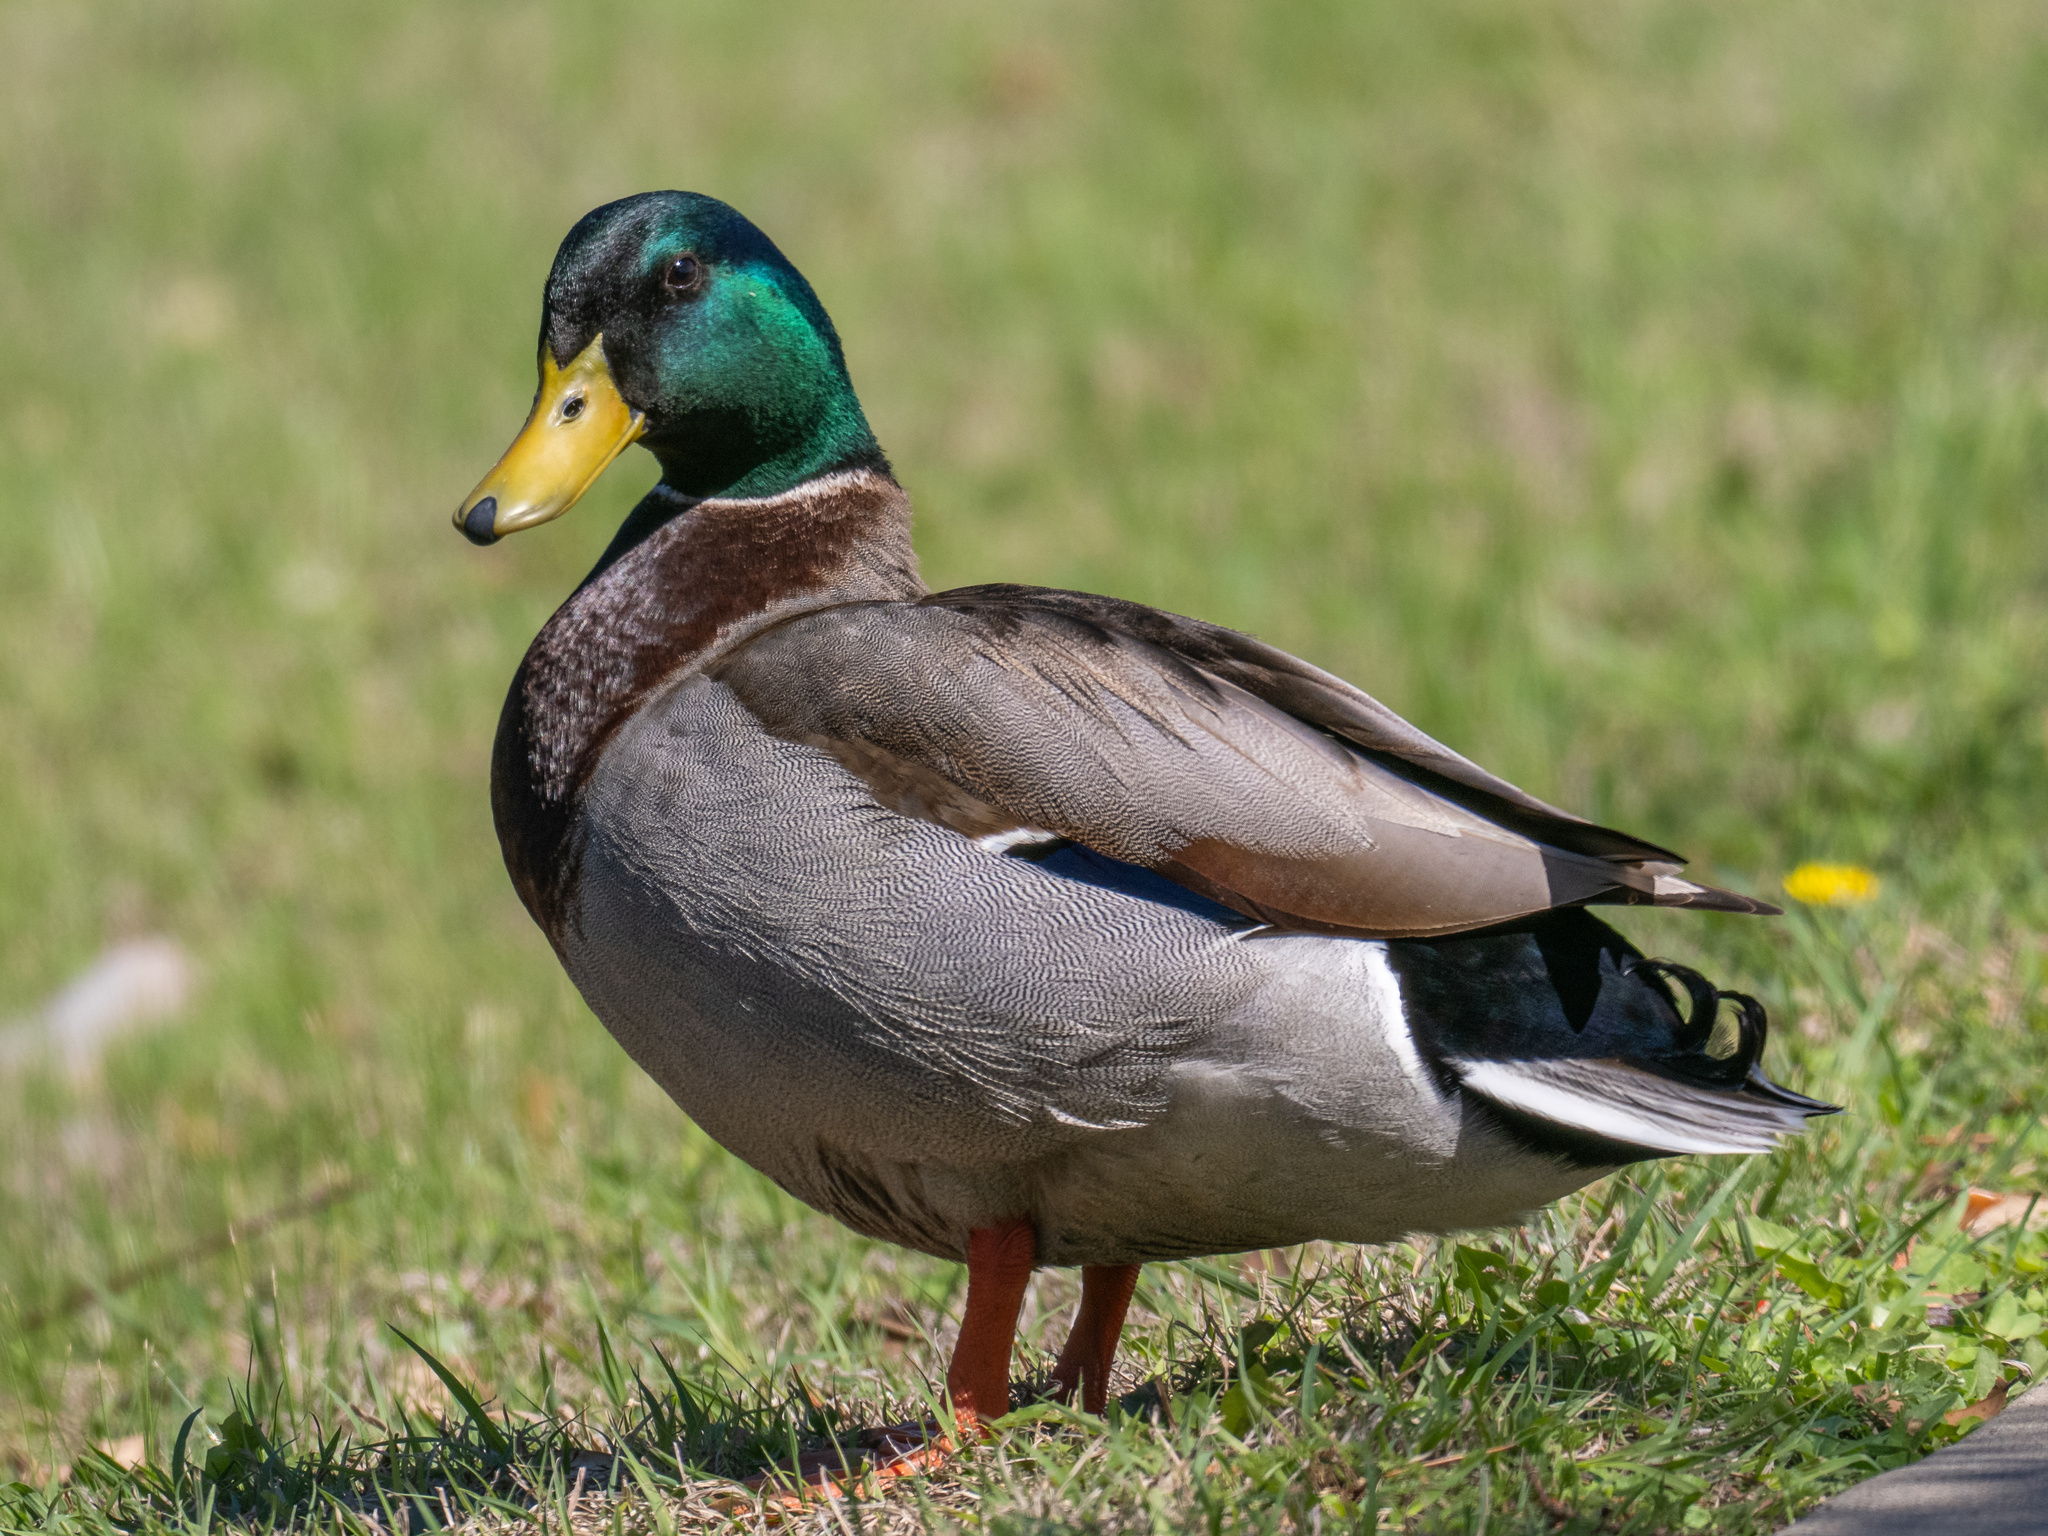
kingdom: Animalia
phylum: Chordata
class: Aves
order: Anseriformes
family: Anatidae
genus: Anas
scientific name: Anas platyrhynchos
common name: Mallard
